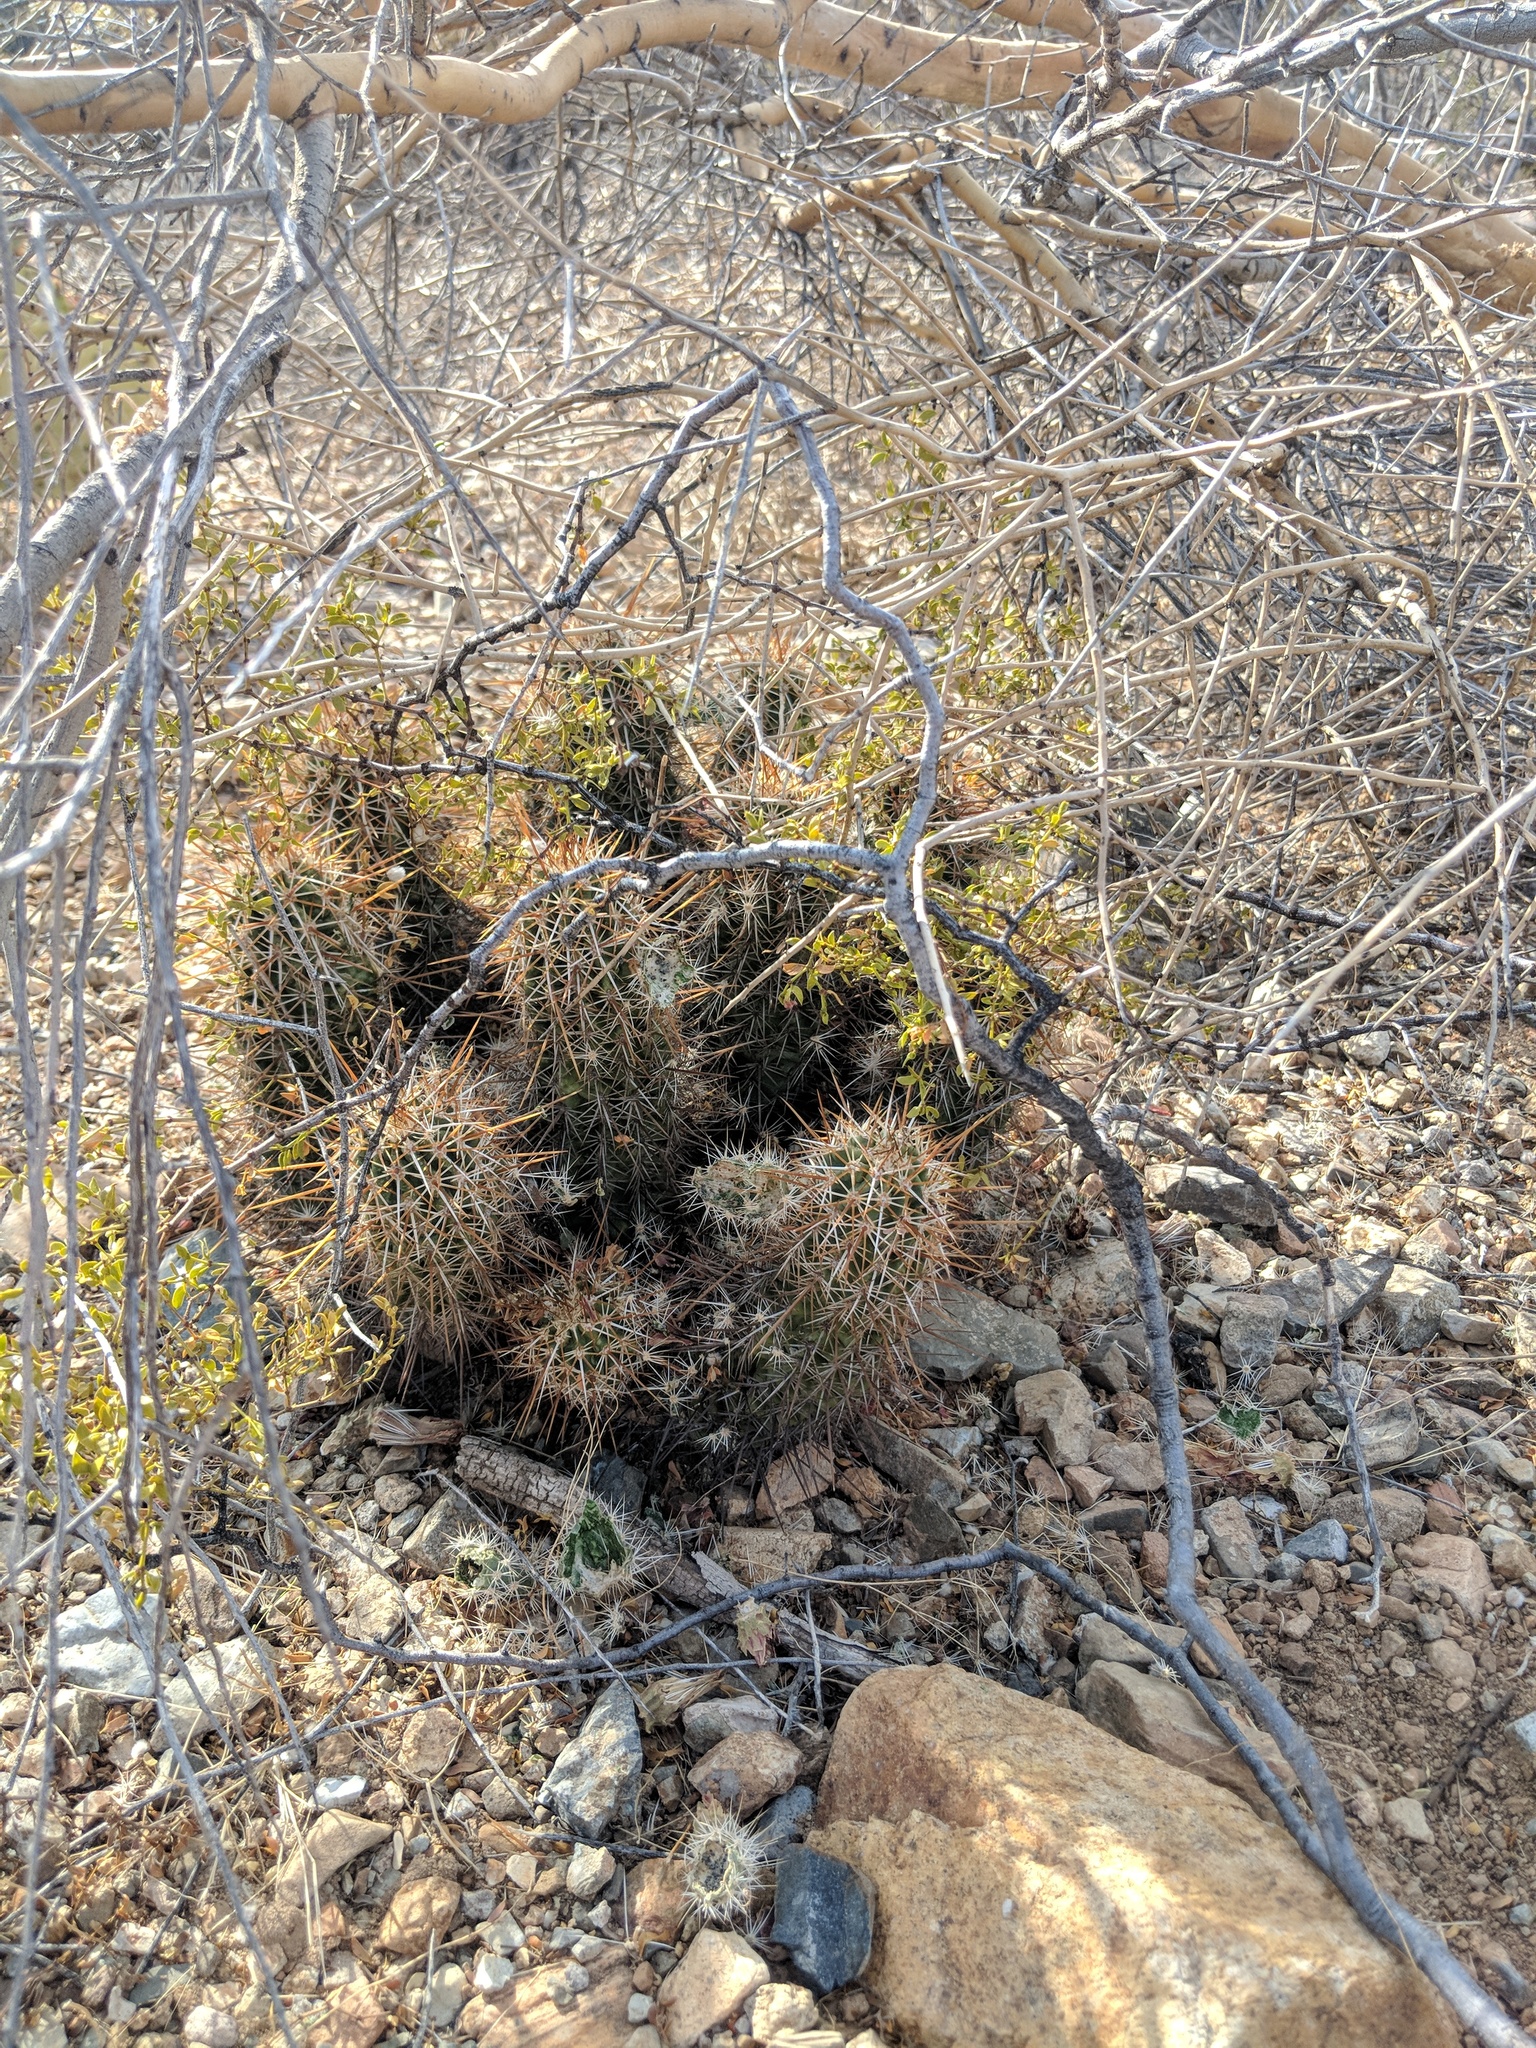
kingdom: Plantae
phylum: Tracheophyta
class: Magnoliopsida
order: Caryophyllales
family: Cactaceae
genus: Echinocereus
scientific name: Echinocereus fasciculatus
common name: Bundle hedgehog
